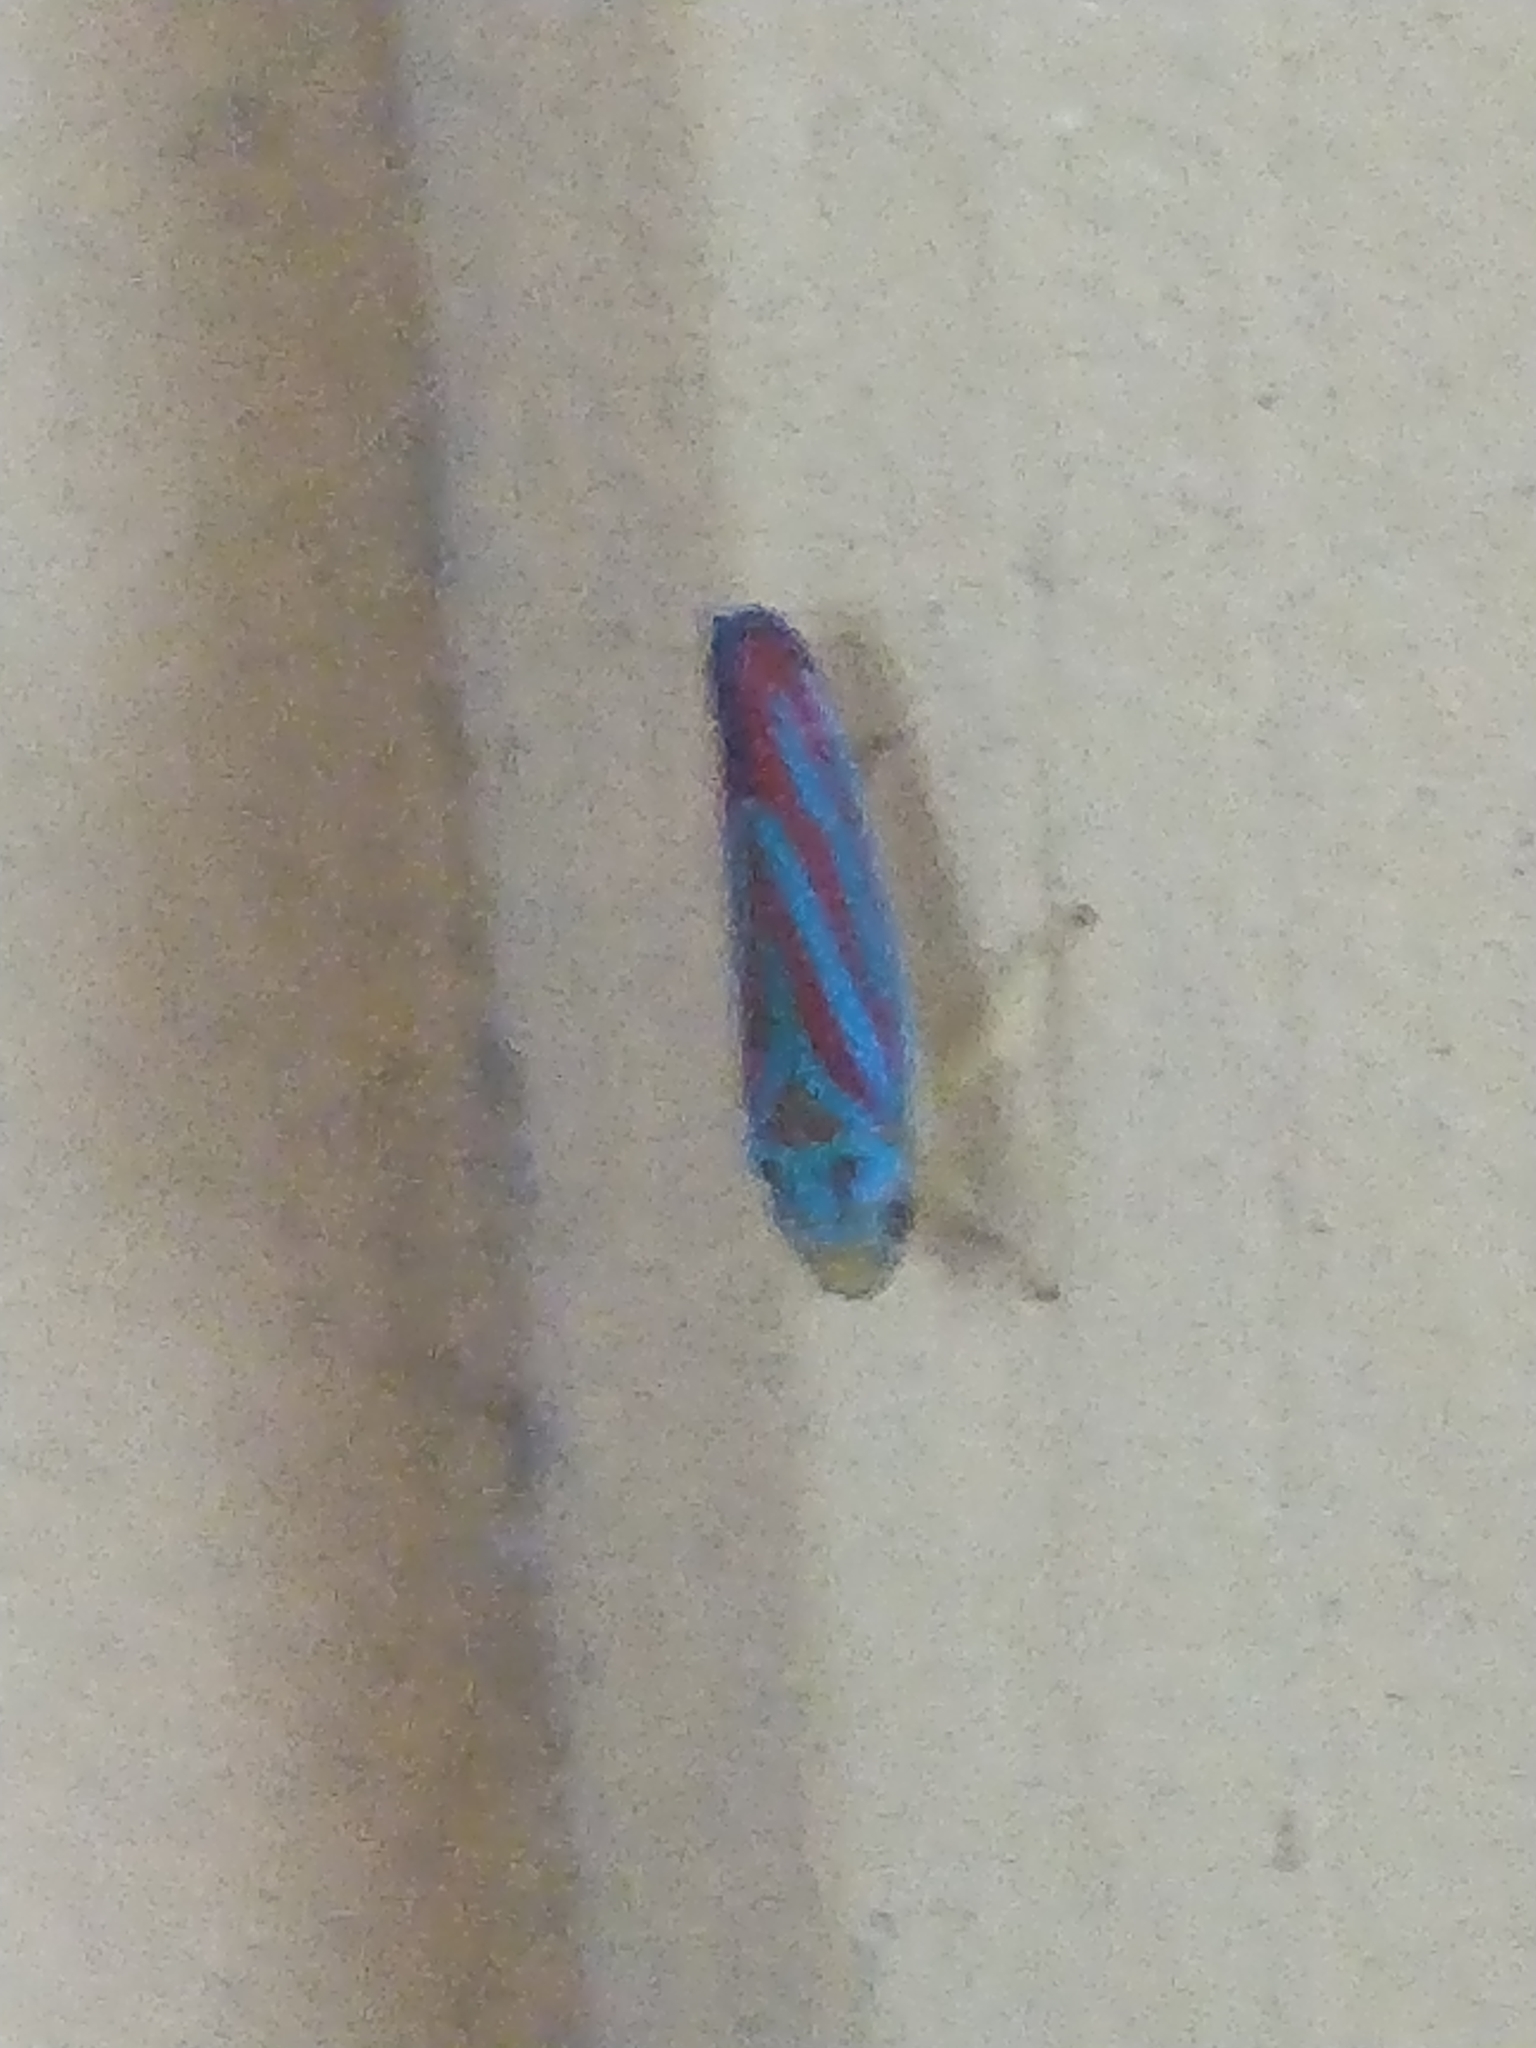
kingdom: Animalia
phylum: Arthropoda
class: Insecta
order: Hemiptera
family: Cicadellidae
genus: Graphocephala
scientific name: Graphocephala coccinea
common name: Candy-striped leafhopper
